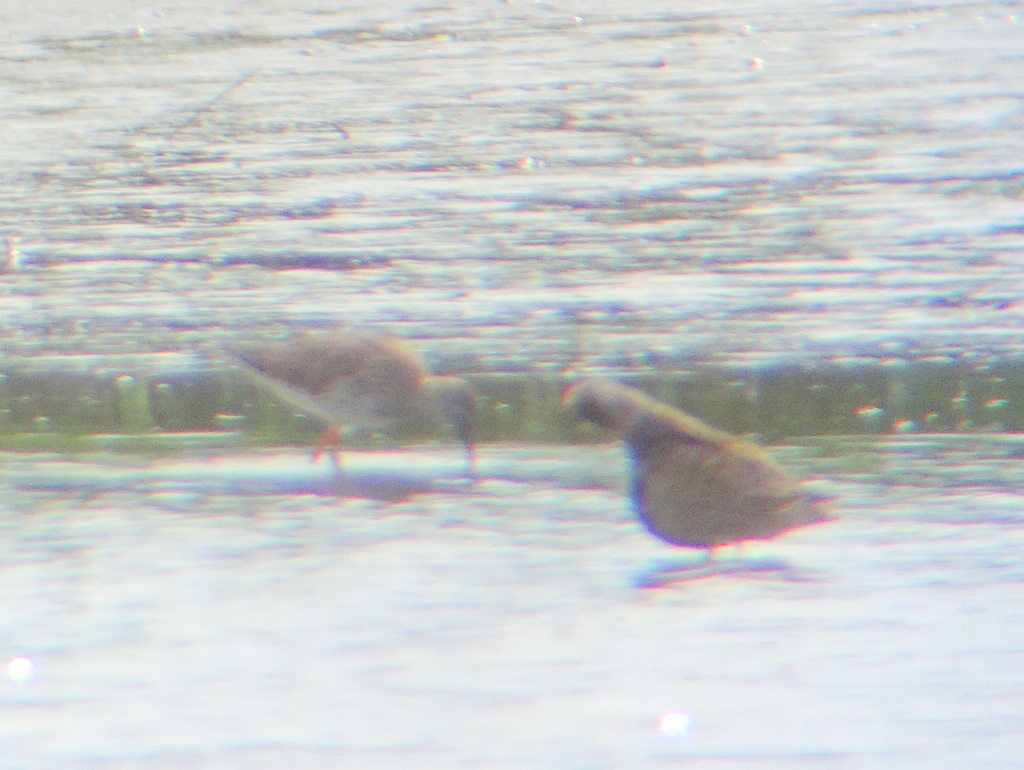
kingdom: Animalia
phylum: Chordata
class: Aves
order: Charadriiformes
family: Scolopacidae
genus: Tringa
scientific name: Tringa totanus
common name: Common redshank
